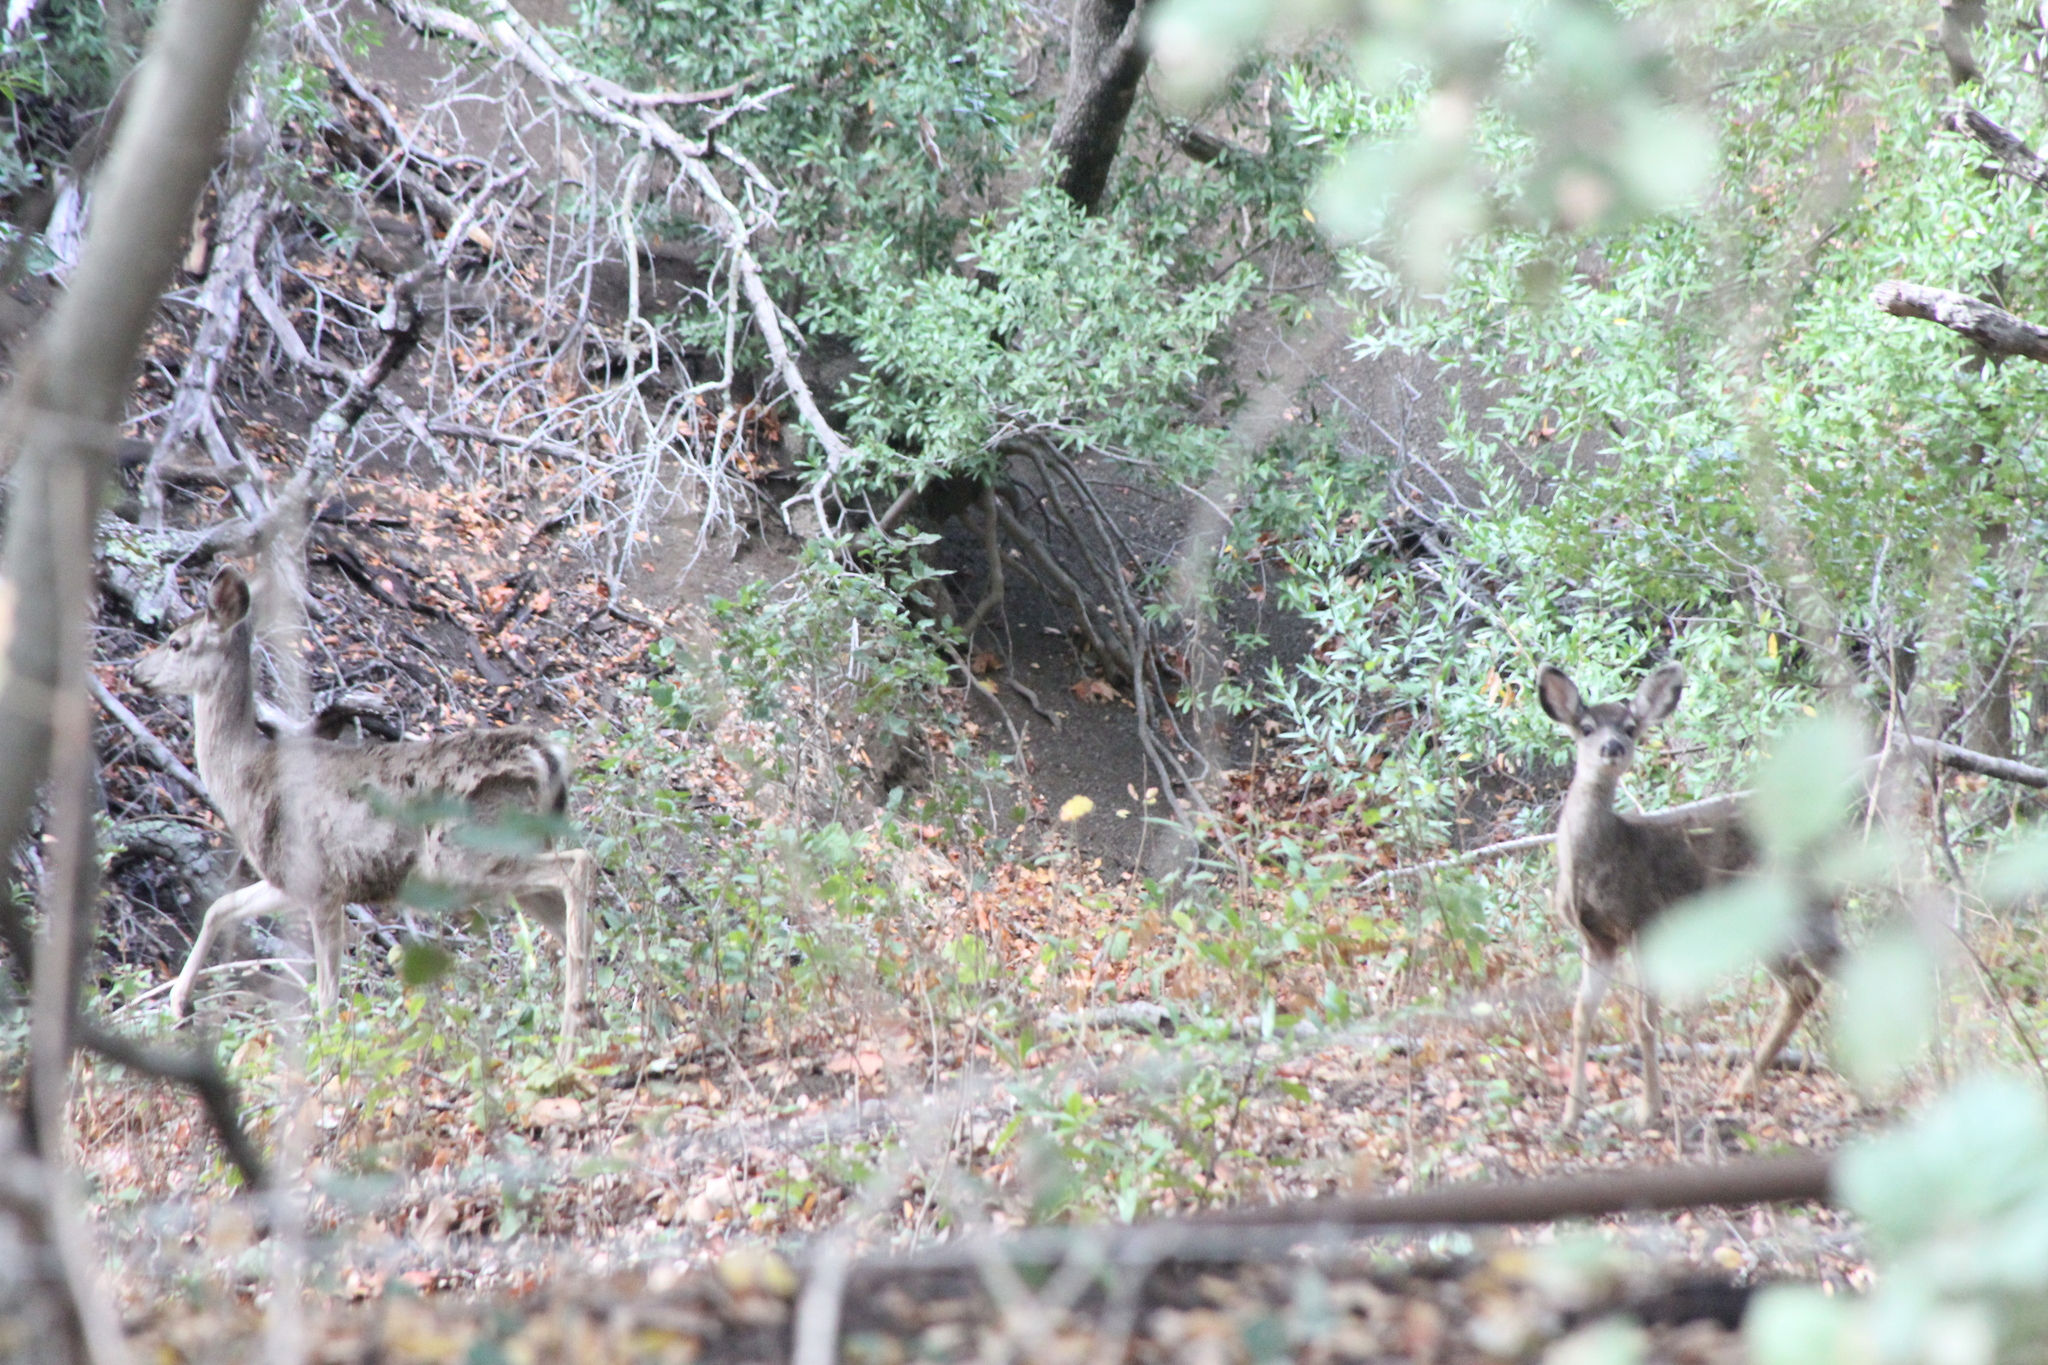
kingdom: Animalia
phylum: Chordata
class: Mammalia
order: Artiodactyla
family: Cervidae
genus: Odocoileus
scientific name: Odocoileus hemionus
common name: Mule deer
